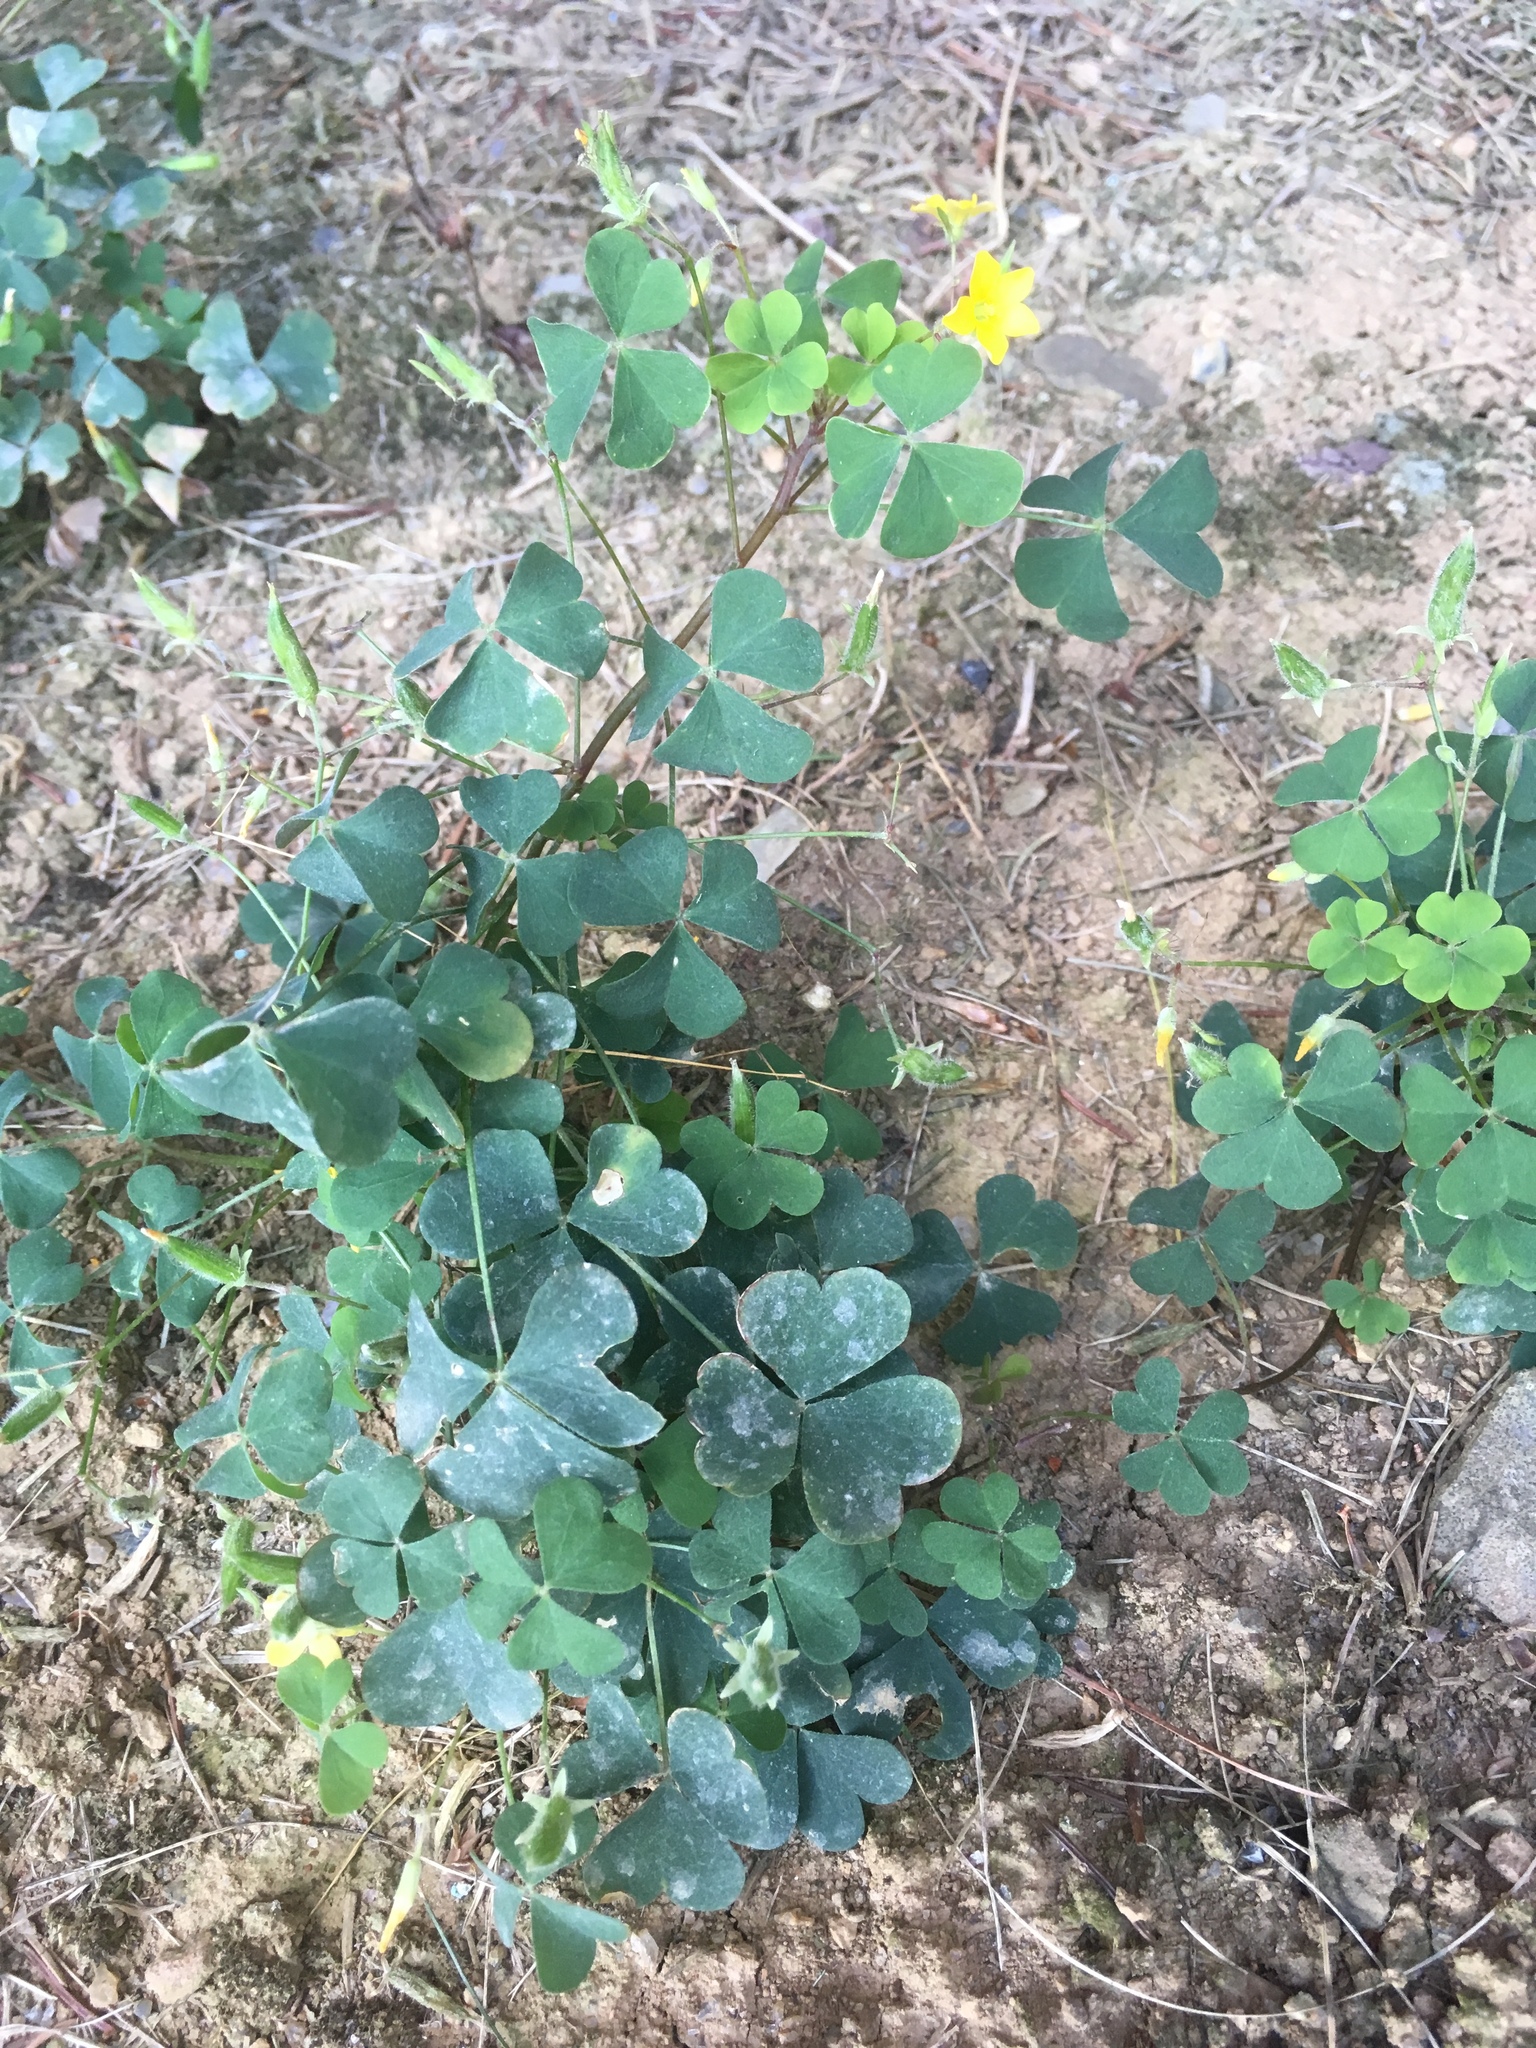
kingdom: Plantae
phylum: Tracheophyta
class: Magnoliopsida
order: Oxalidales
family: Oxalidaceae
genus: Oxalis
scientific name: Oxalis stricta
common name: Upright yellow-sorrel
